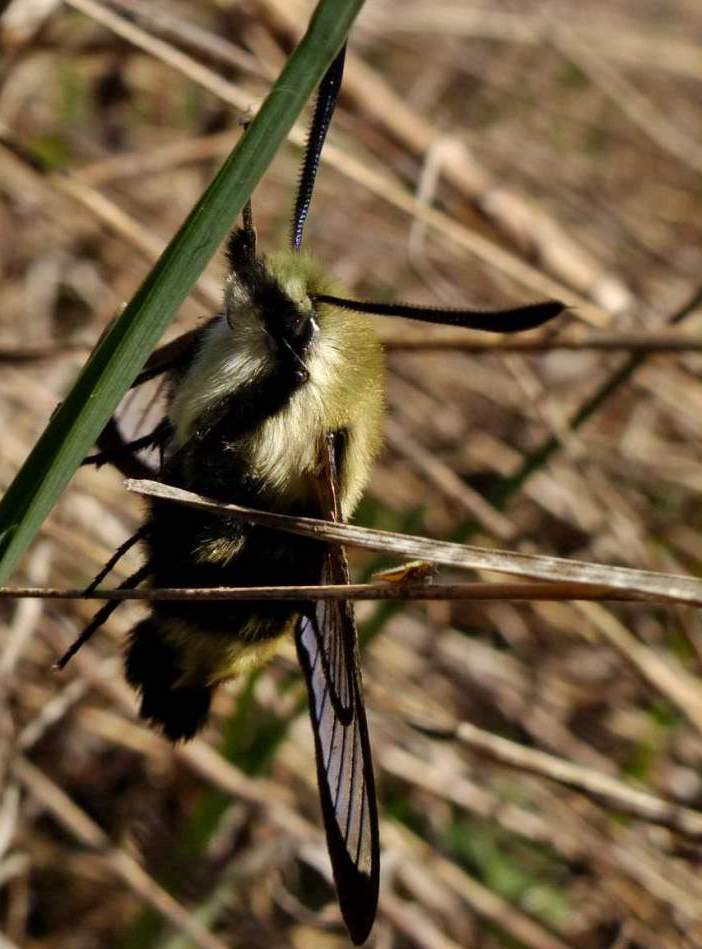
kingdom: Animalia
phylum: Arthropoda
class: Insecta
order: Lepidoptera
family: Sphingidae
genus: Hemaris
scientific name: Hemaris diffinis
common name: Bumblebee moth
